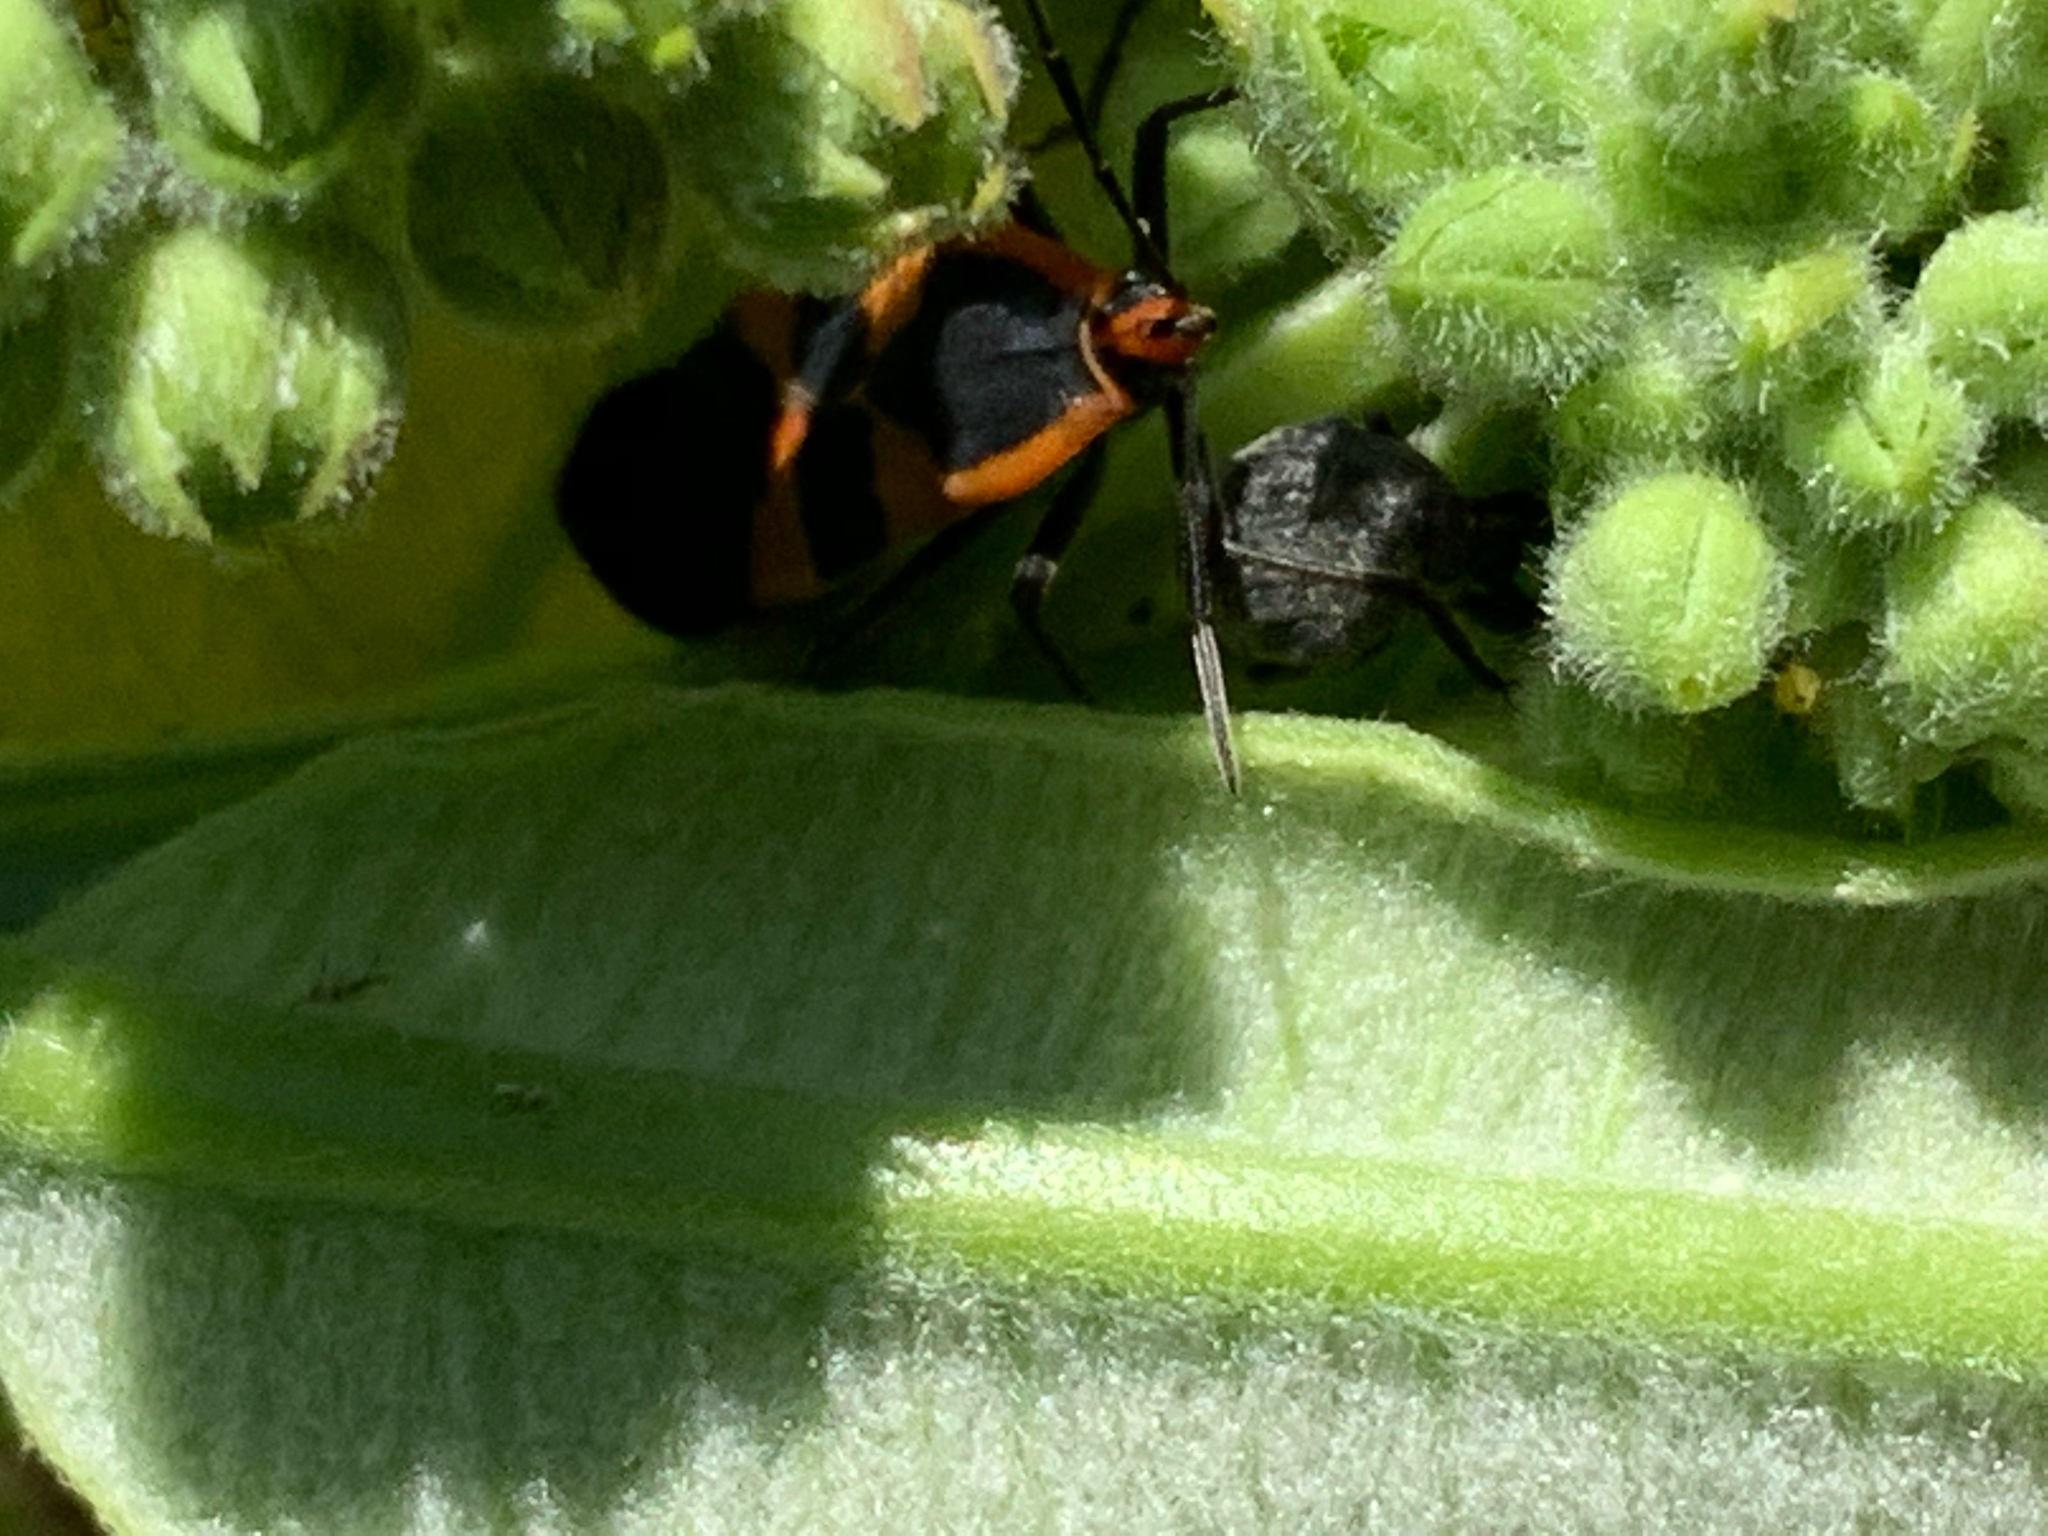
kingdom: Animalia
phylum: Arthropoda
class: Insecta
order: Hemiptera
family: Lygaeidae
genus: Oncopeltus
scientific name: Oncopeltus fasciatus
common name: Large milkweed bug
